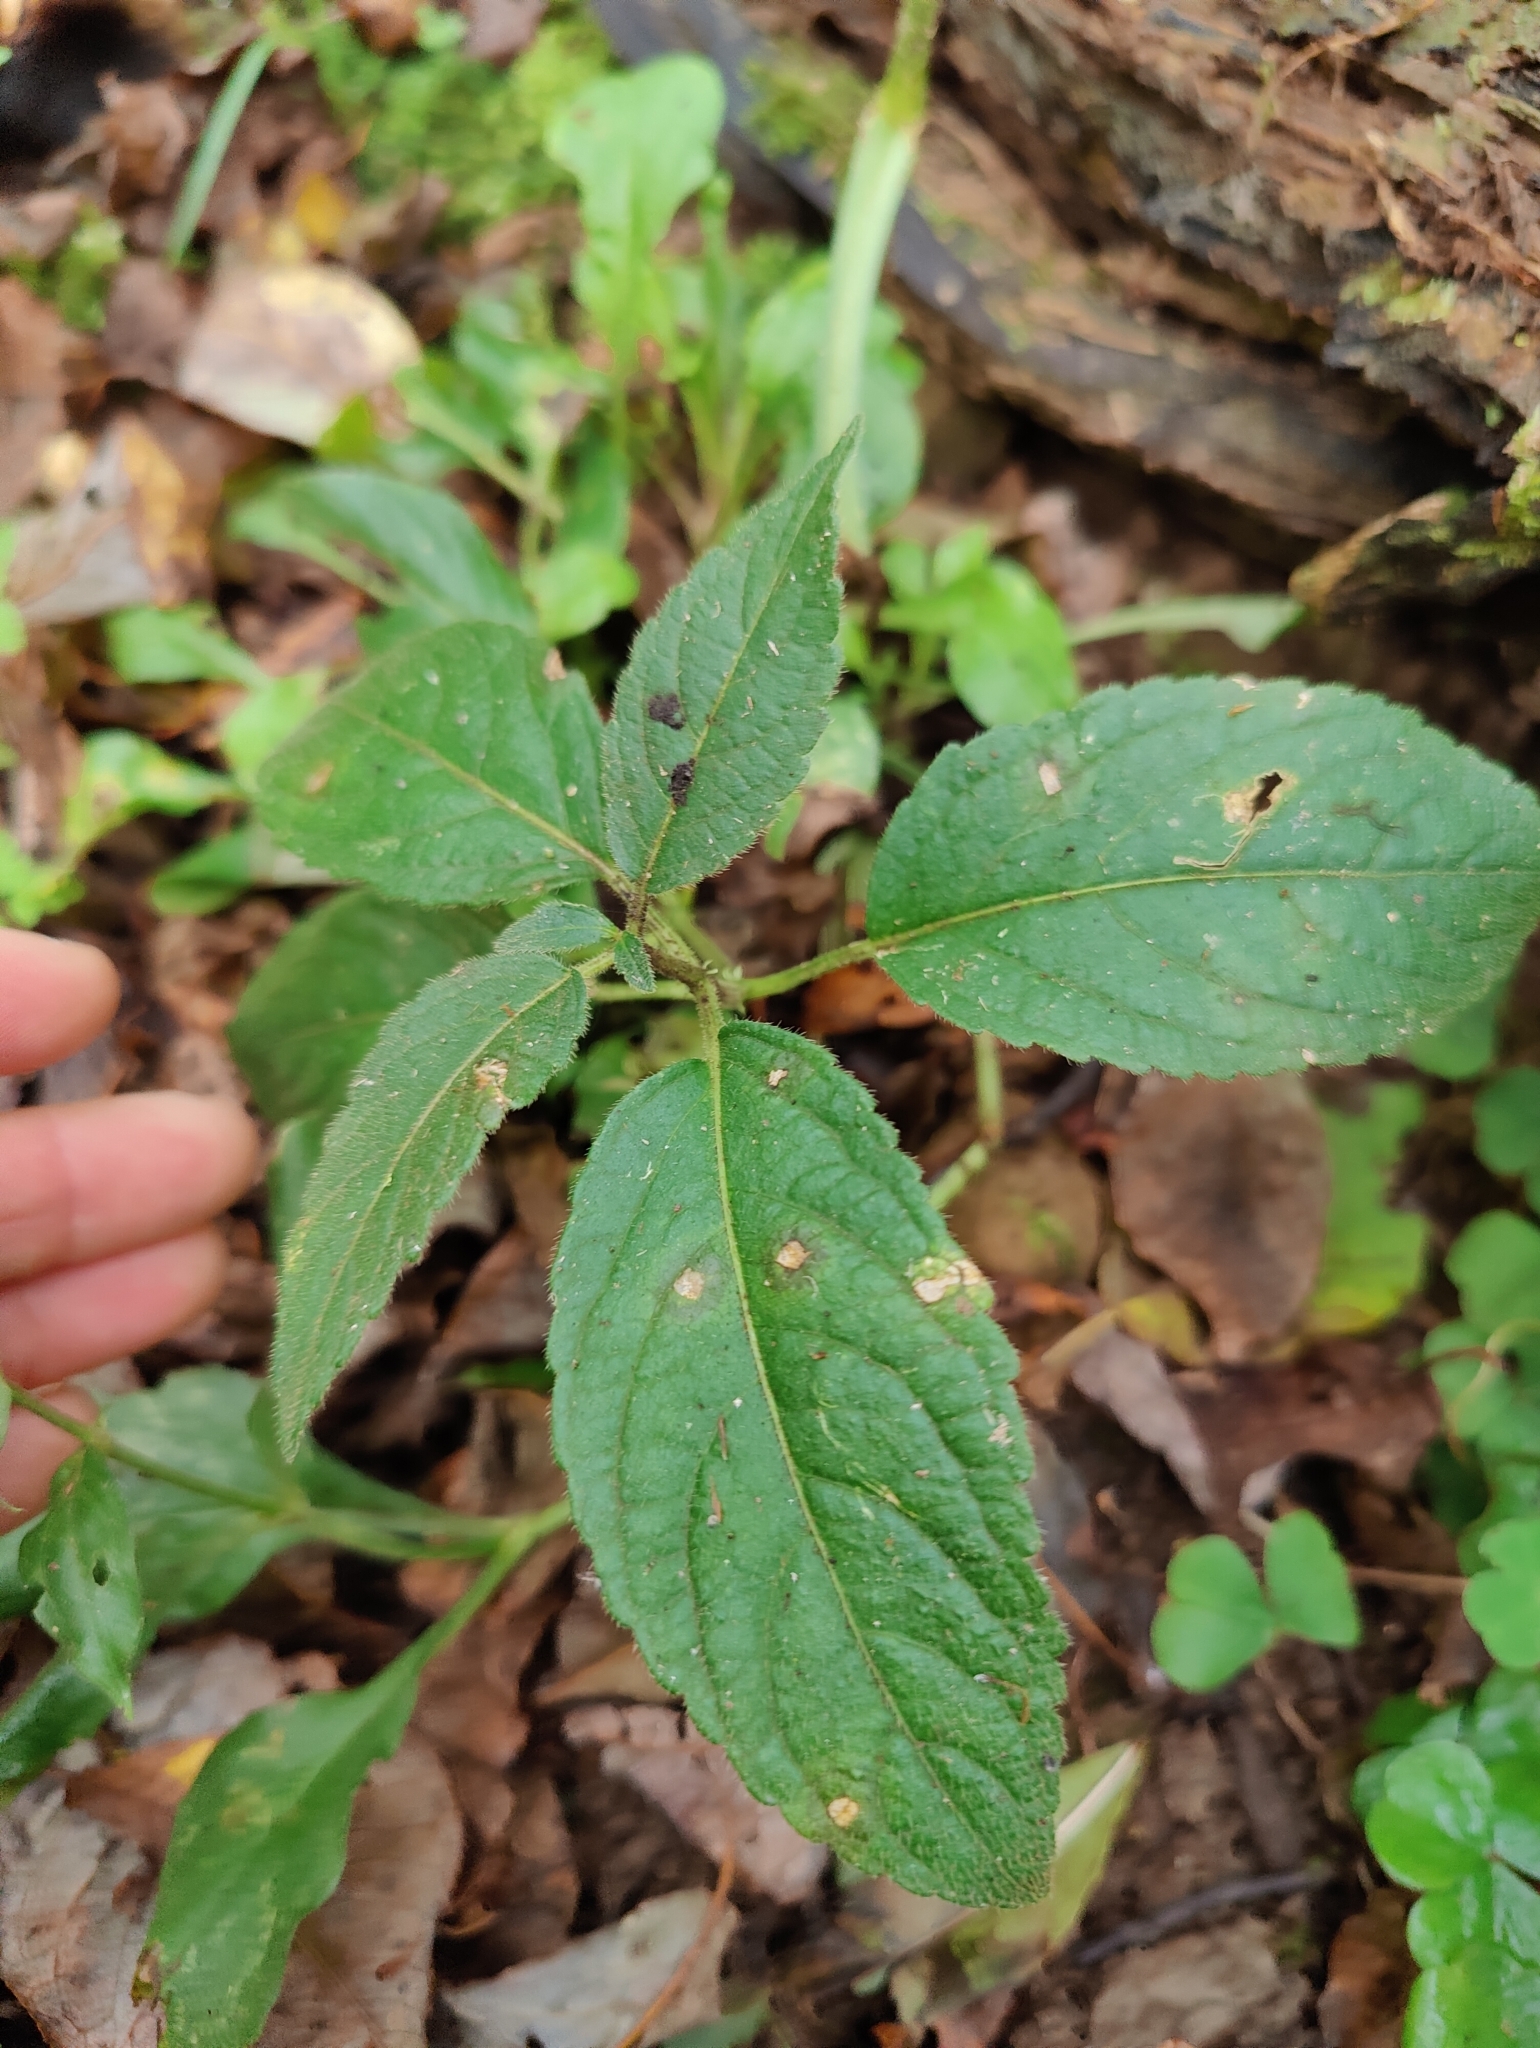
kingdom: Plantae
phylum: Tracheophyta
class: Magnoliopsida
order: Caryophyllales
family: Caryophyllaceae
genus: Silene
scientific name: Silene dioica
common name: Red campion
